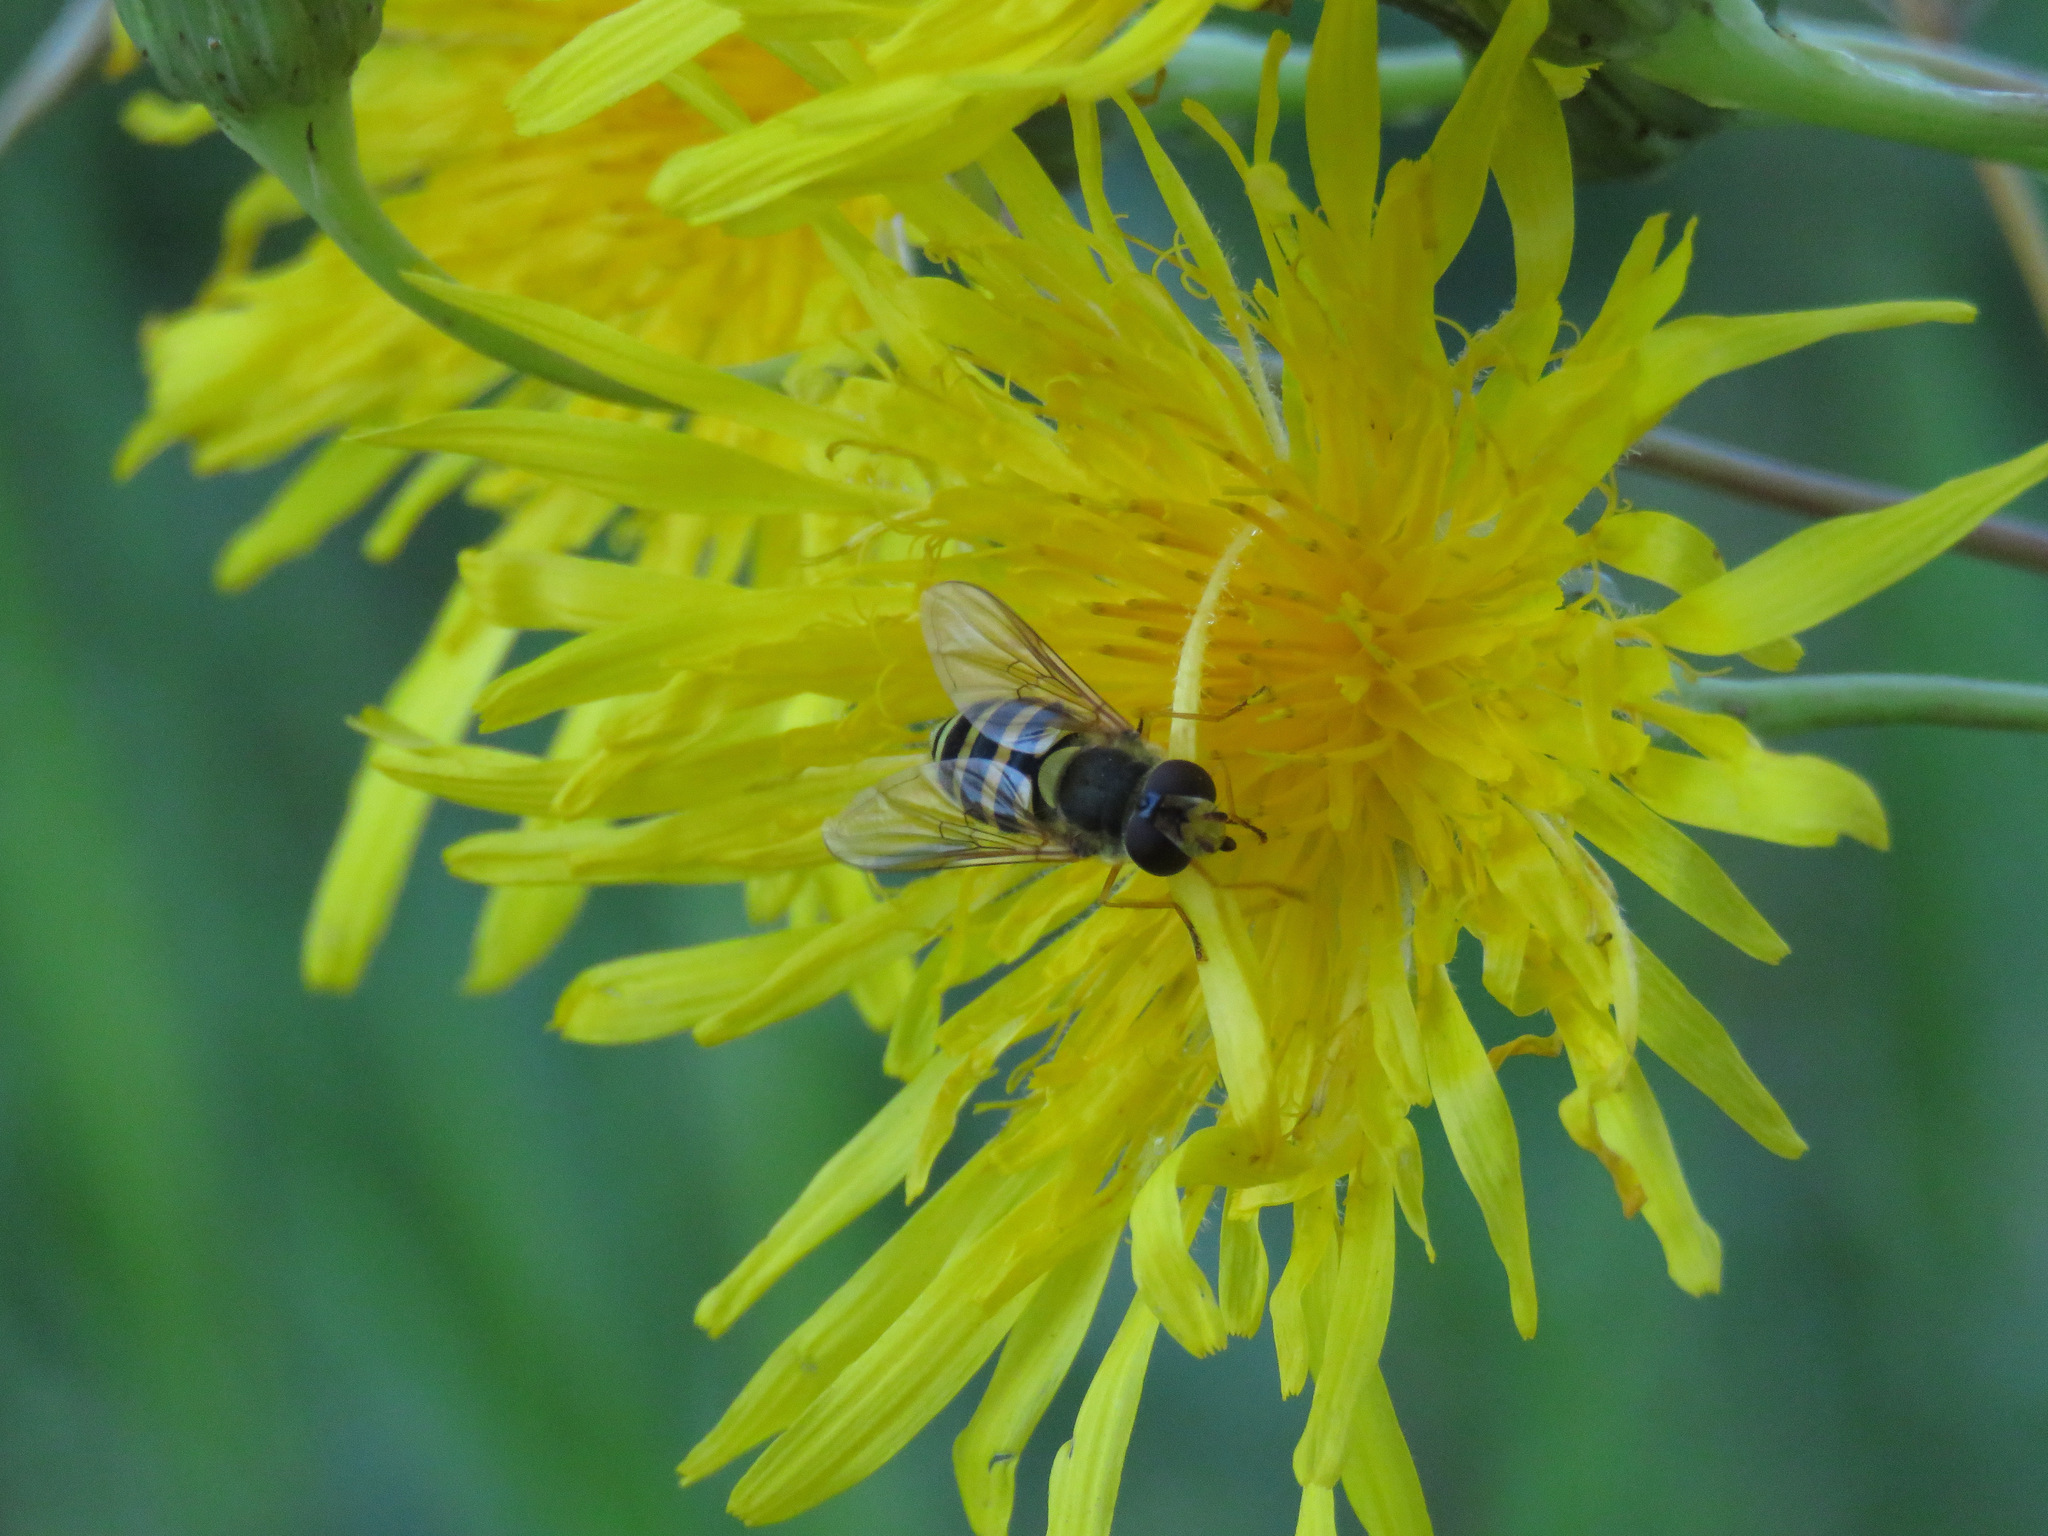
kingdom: Animalia
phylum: Arthropoda
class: Insecta
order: Diptera
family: Syrphidae
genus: Syrphus
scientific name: Syrphus
